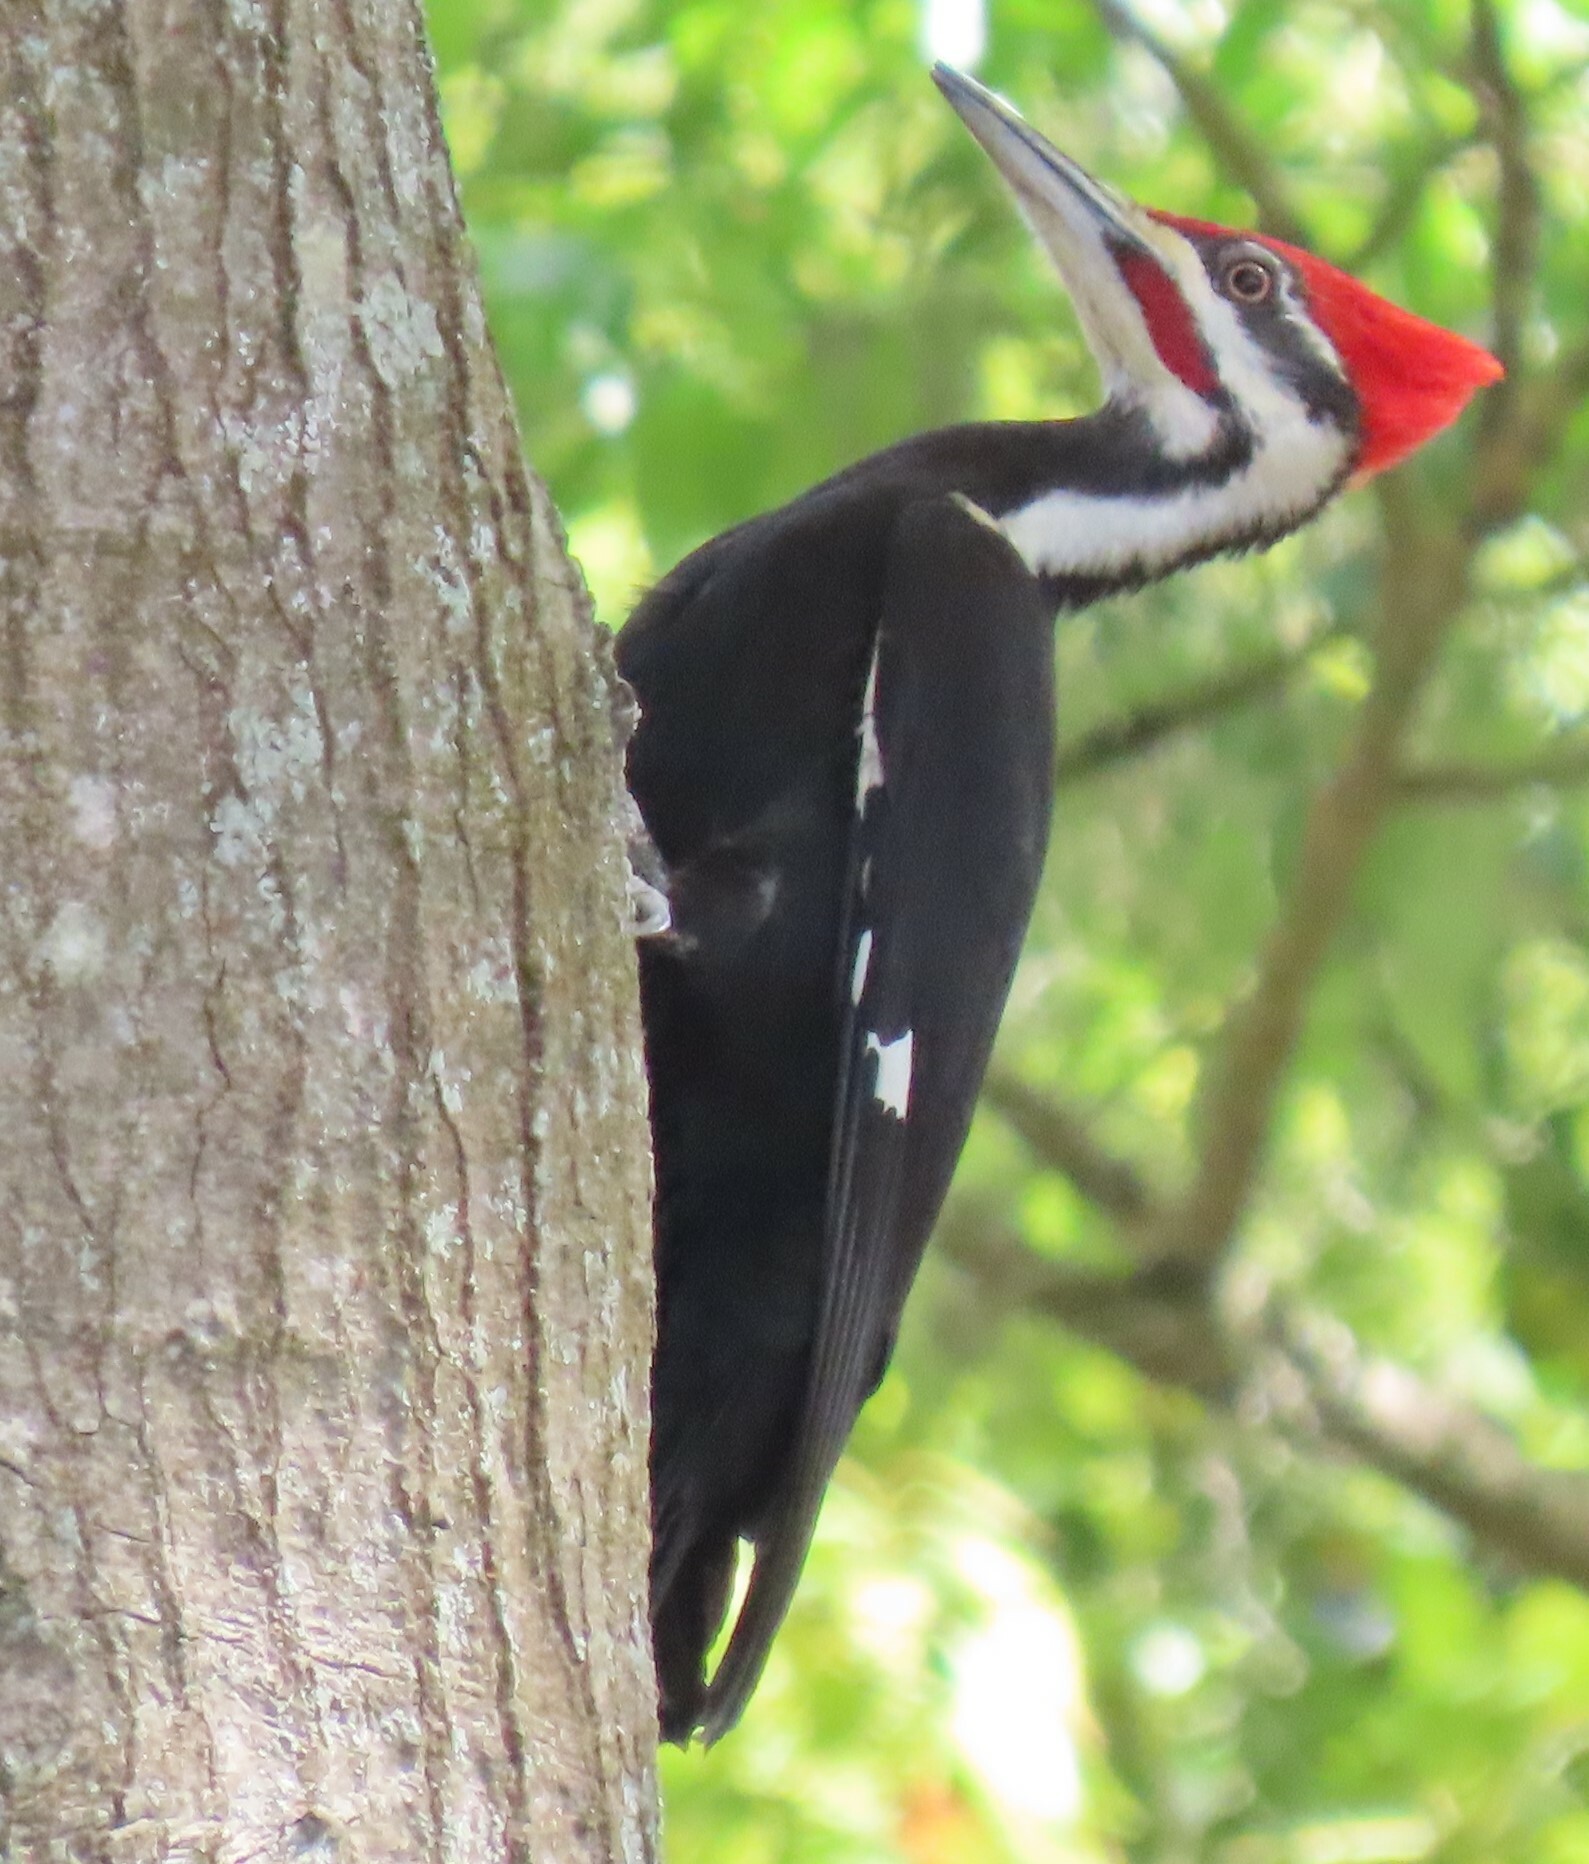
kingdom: Animalia
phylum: Chordata
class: Aves
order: Piciformes
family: Picidae
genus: Dryocopus
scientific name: Dryocopus pileatus
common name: Pileated woodpecker
